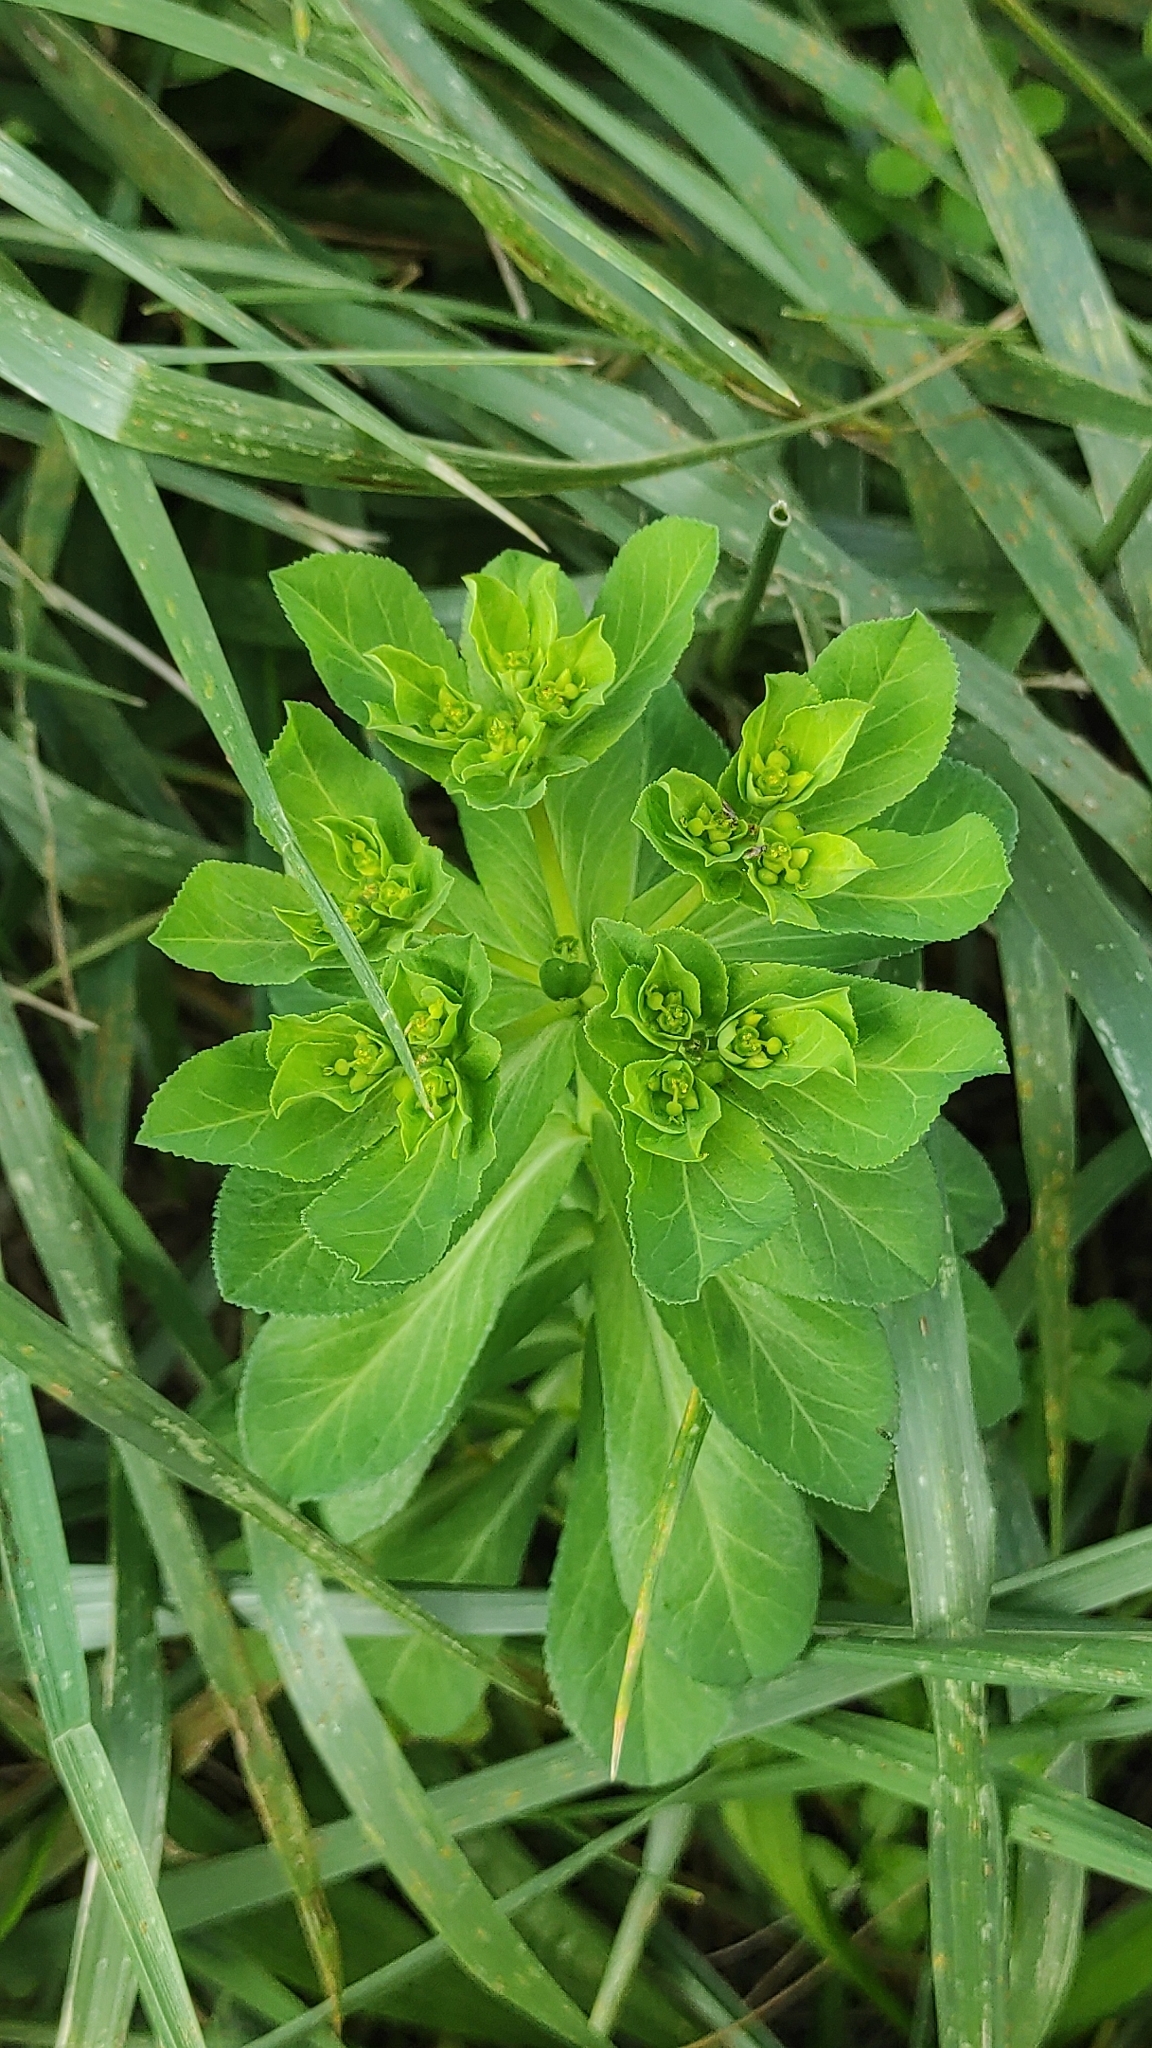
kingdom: Plantae
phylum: Tracheophyta
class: Magnoliopsida
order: Malpighiales
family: Euphorbiaceae
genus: Euphorbia
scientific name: Euphorbia helioscopia
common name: Sun spurge
